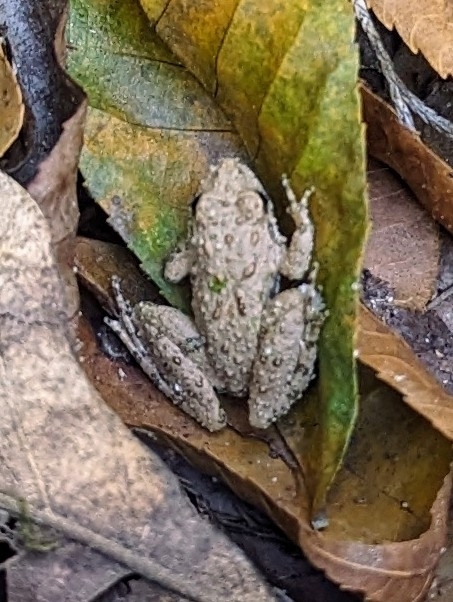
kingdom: Animalia
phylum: Chordata
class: Amphibia
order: Anura
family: Hylidae
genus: Acris
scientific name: Acris blanchardi
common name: Blanchard's cricket frog
